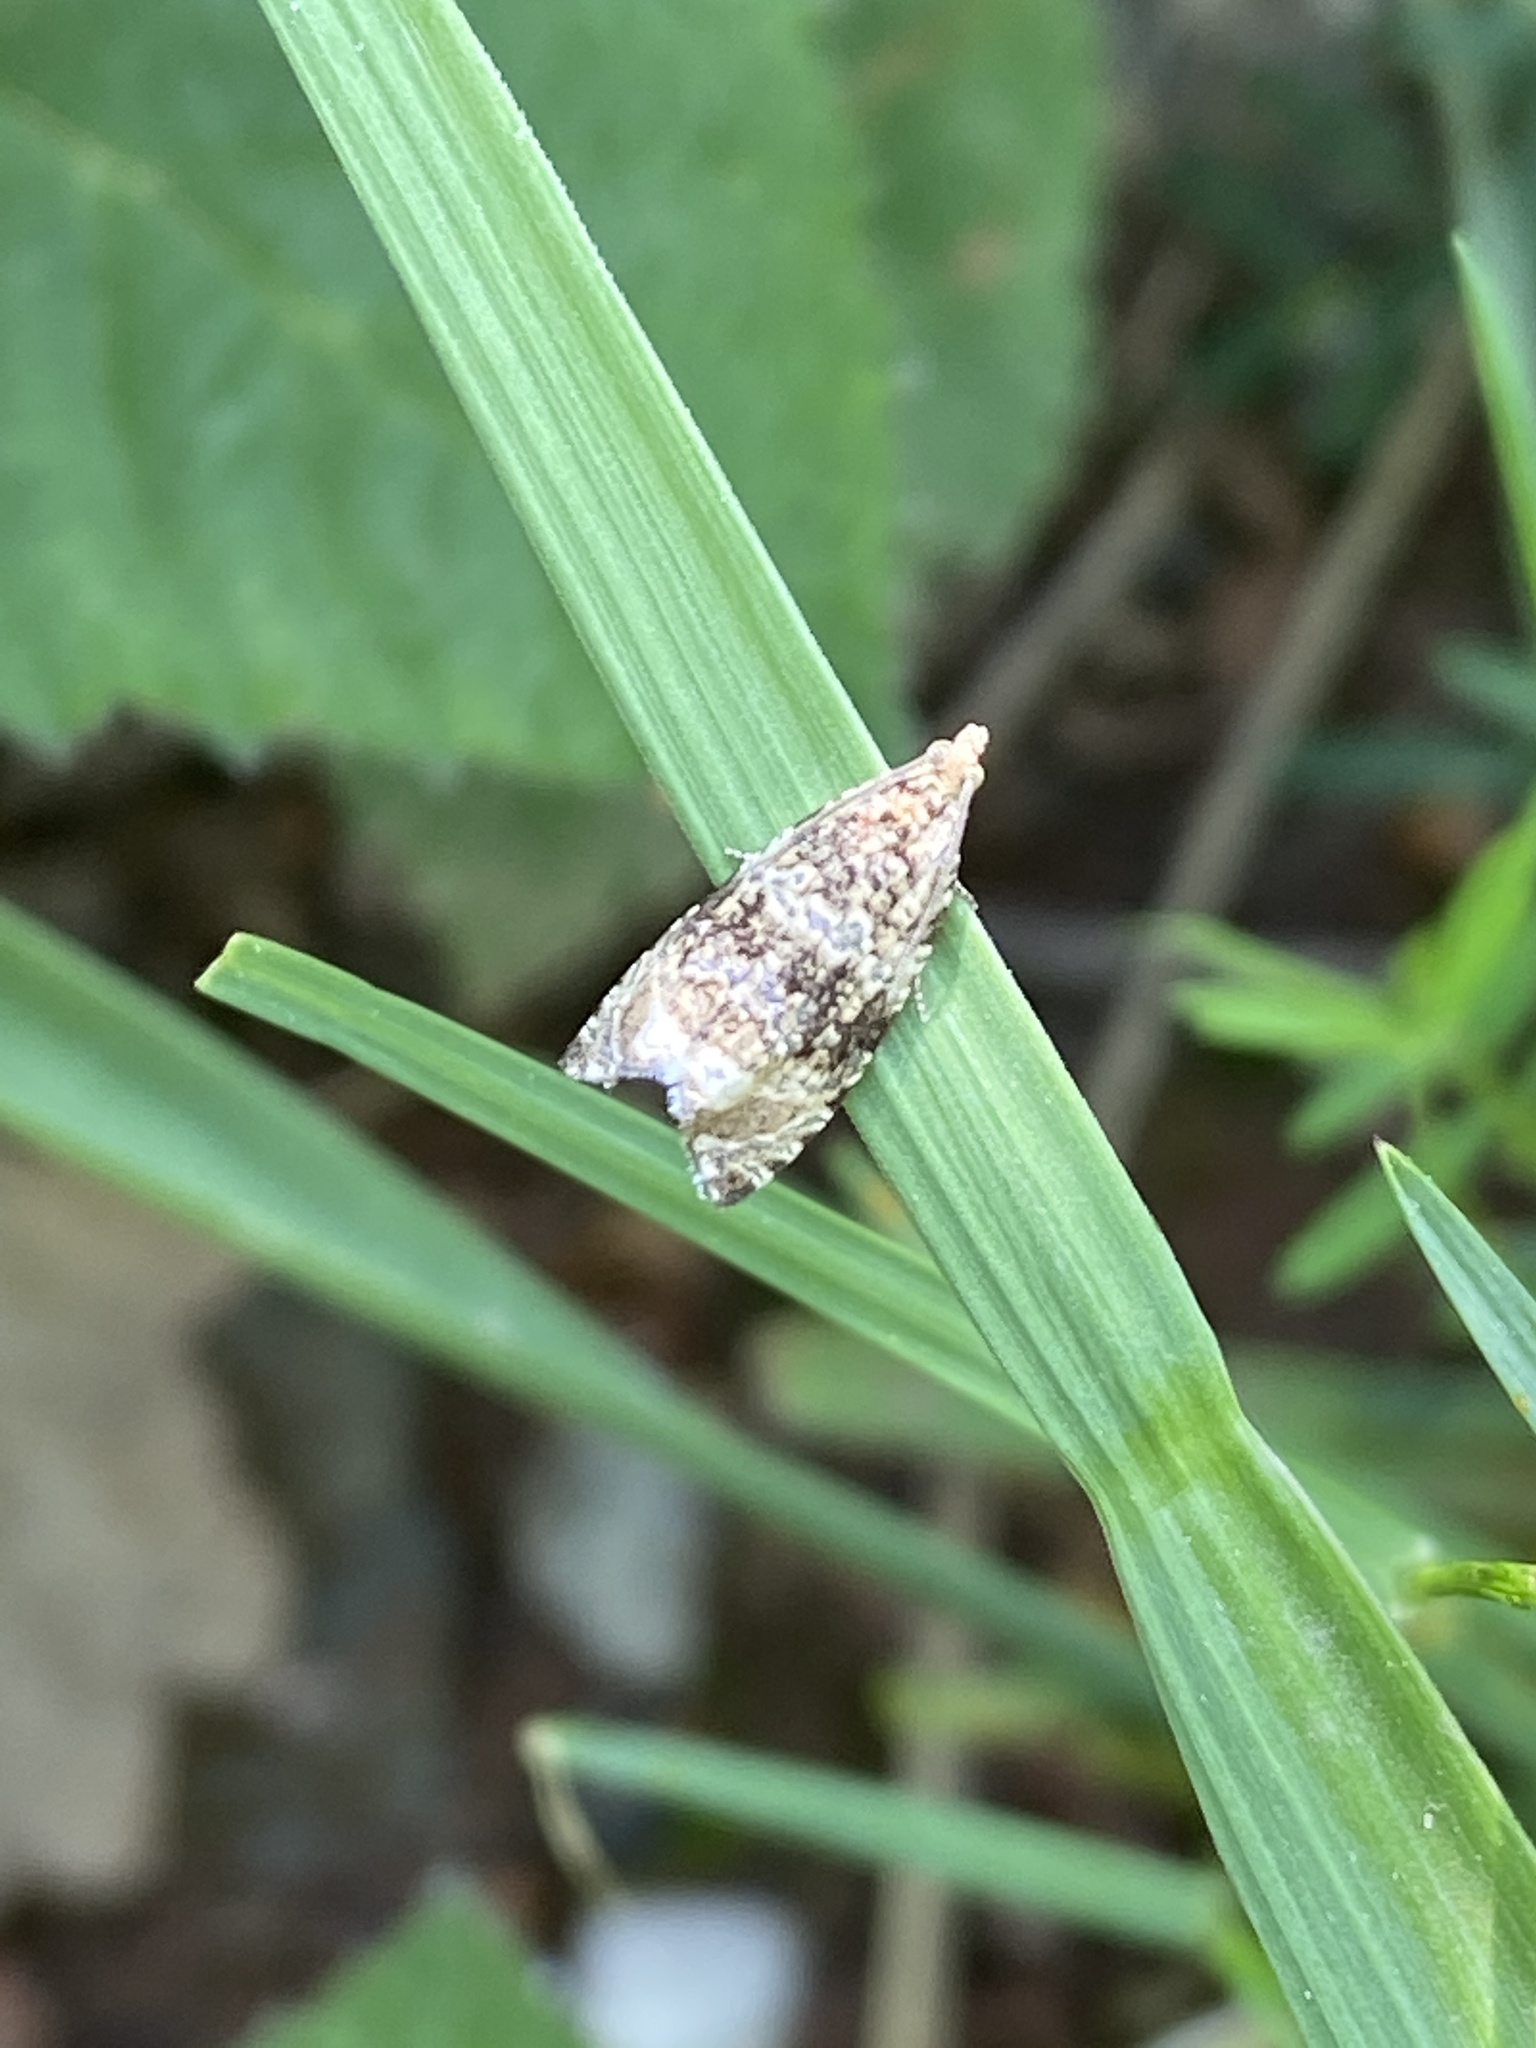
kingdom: Animalia
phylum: Arthropoda
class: Insecta
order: Lepidoptera
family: Tortricidae
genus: Syricoris
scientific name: Syricoris lacunana
